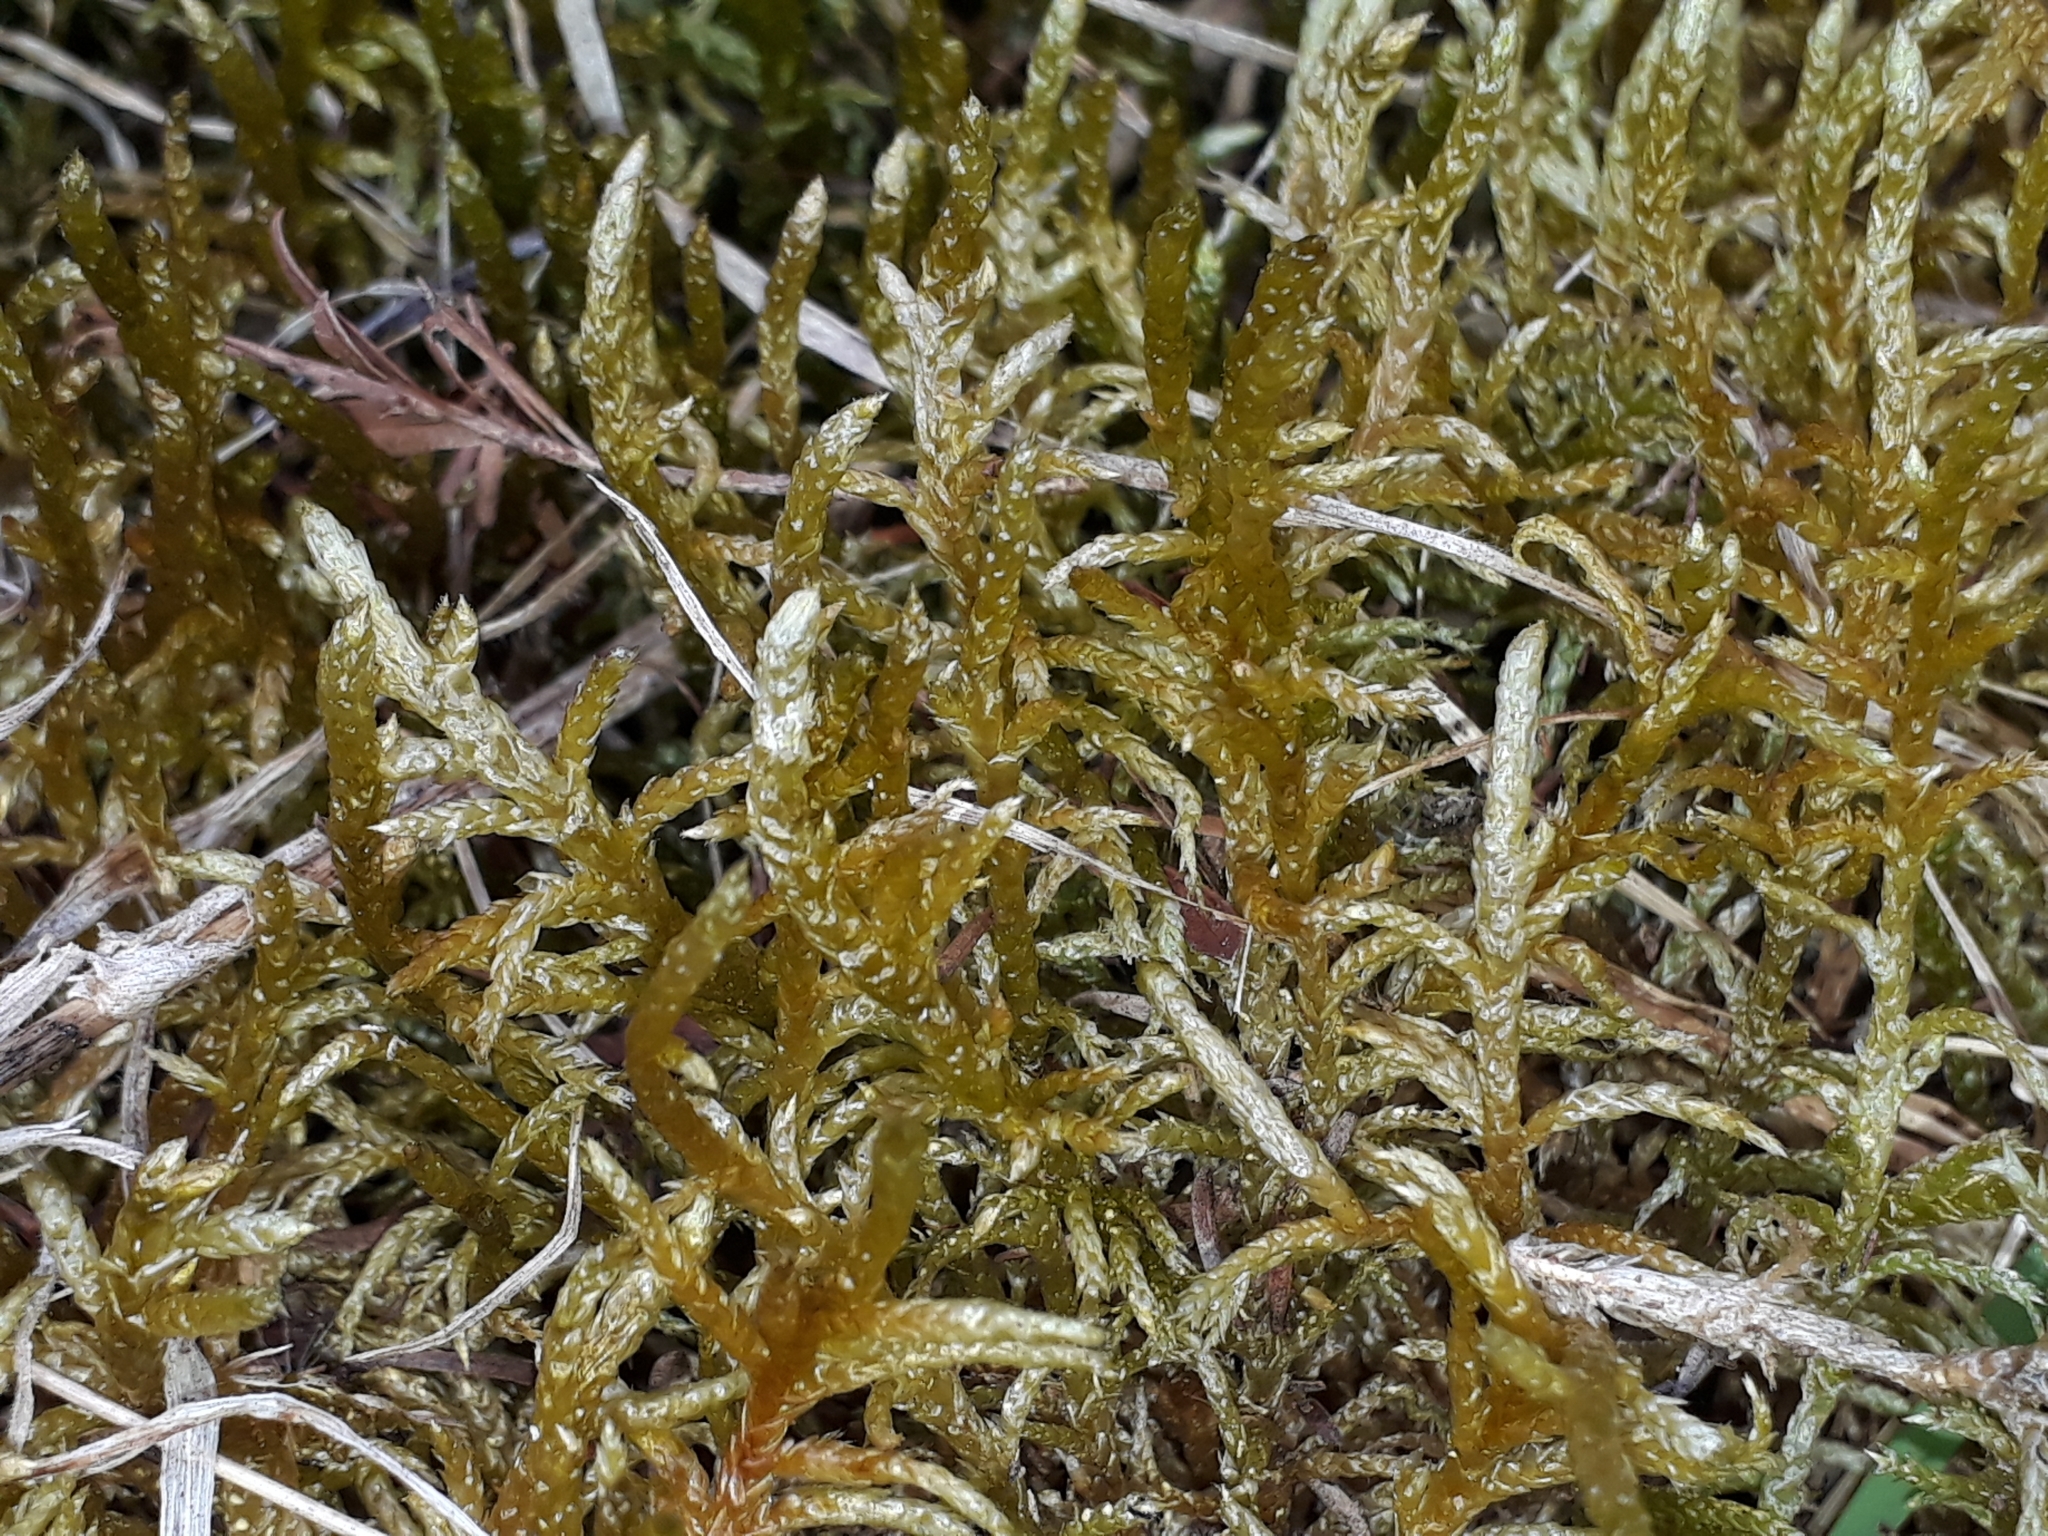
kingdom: Plantae
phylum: Bryophyta
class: Bryopsida
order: Hypnales
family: Brachytheciaceae
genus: Pseudoscleropodium
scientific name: Pseudoscleropodium purum
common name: Neat feather-moss
